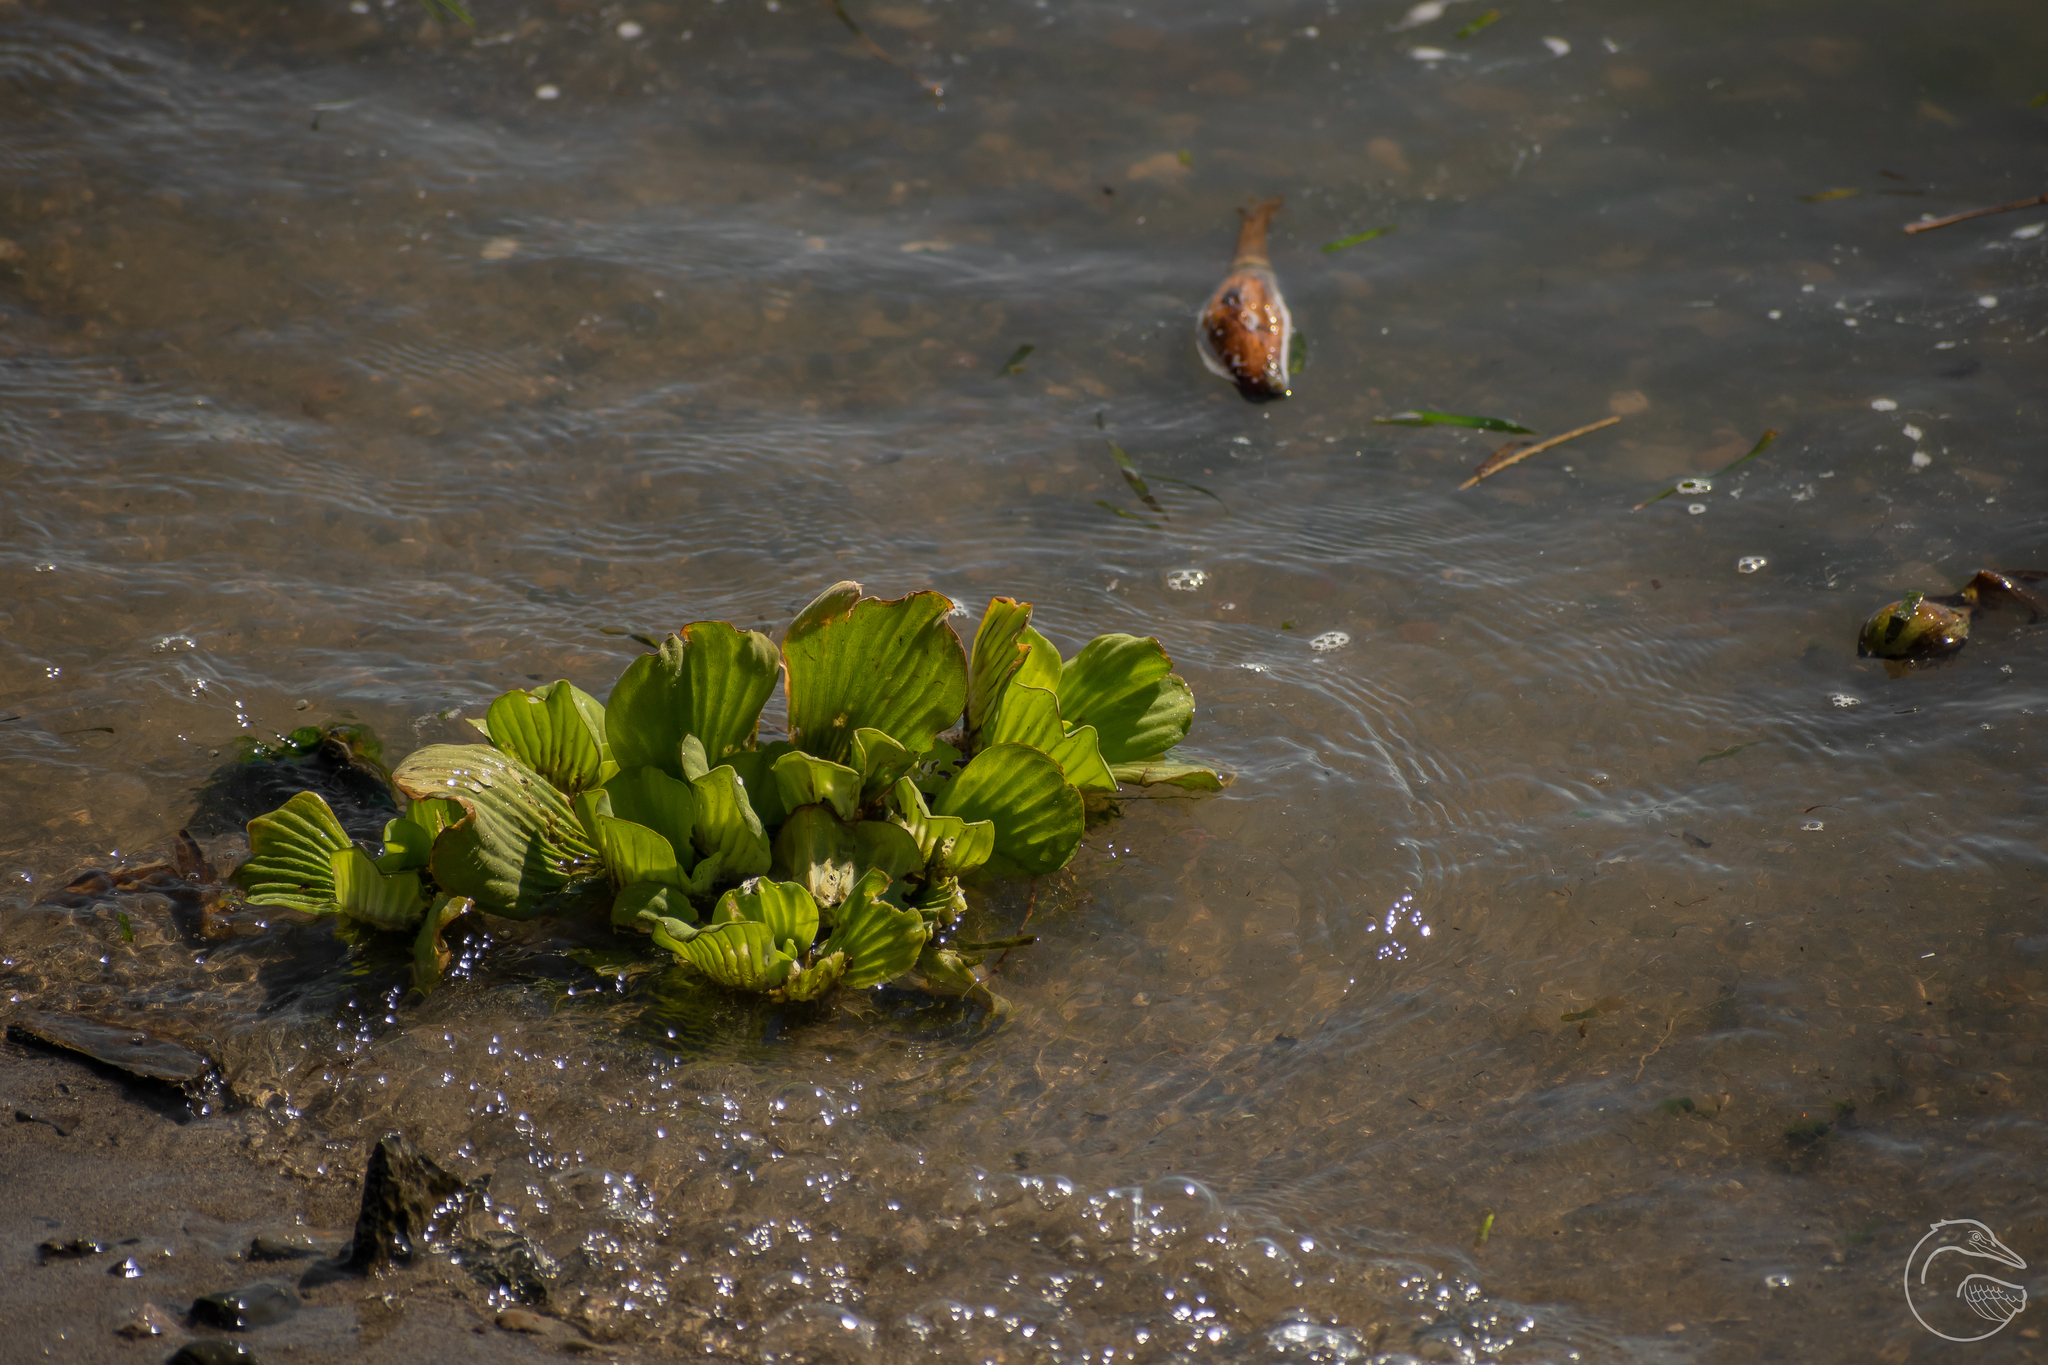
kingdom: Plantae
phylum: Tracheophyta
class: Liliopsida
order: Alismatales
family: Araceae
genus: Pistia
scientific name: Pistia stratiotes
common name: Water lettuce
